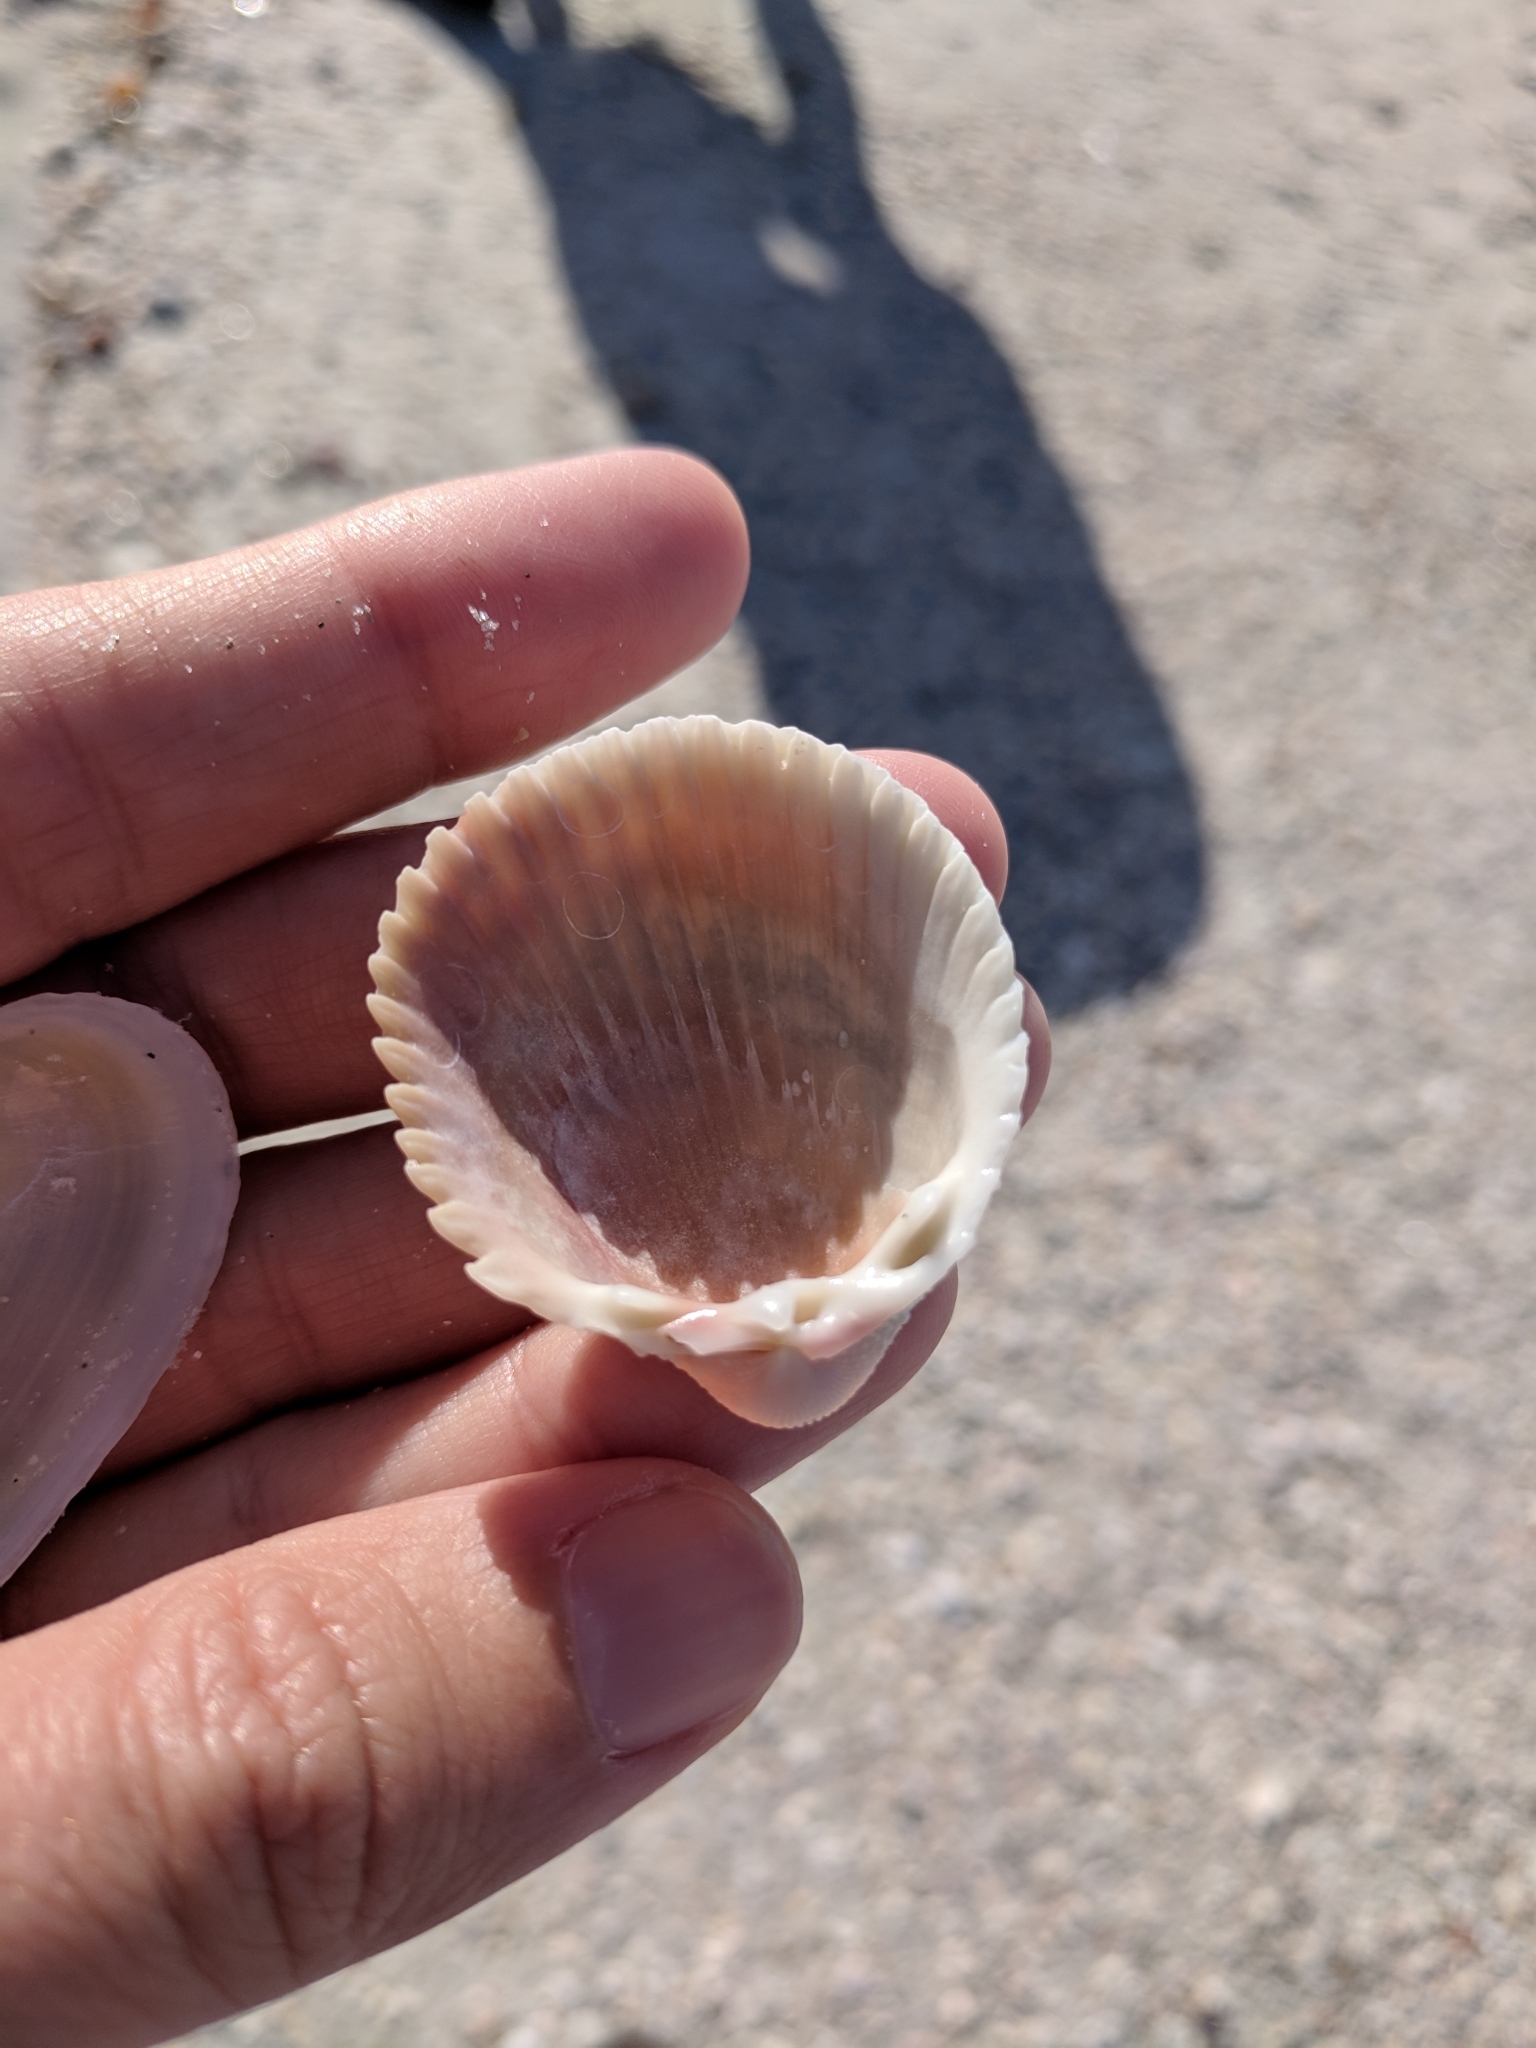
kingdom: Animalia
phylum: Mollusca
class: Bivalvia
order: Cardiida
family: Cardiidae
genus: Trachycardium
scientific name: Trachycardium egmontianum
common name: Florida pricklycockle
